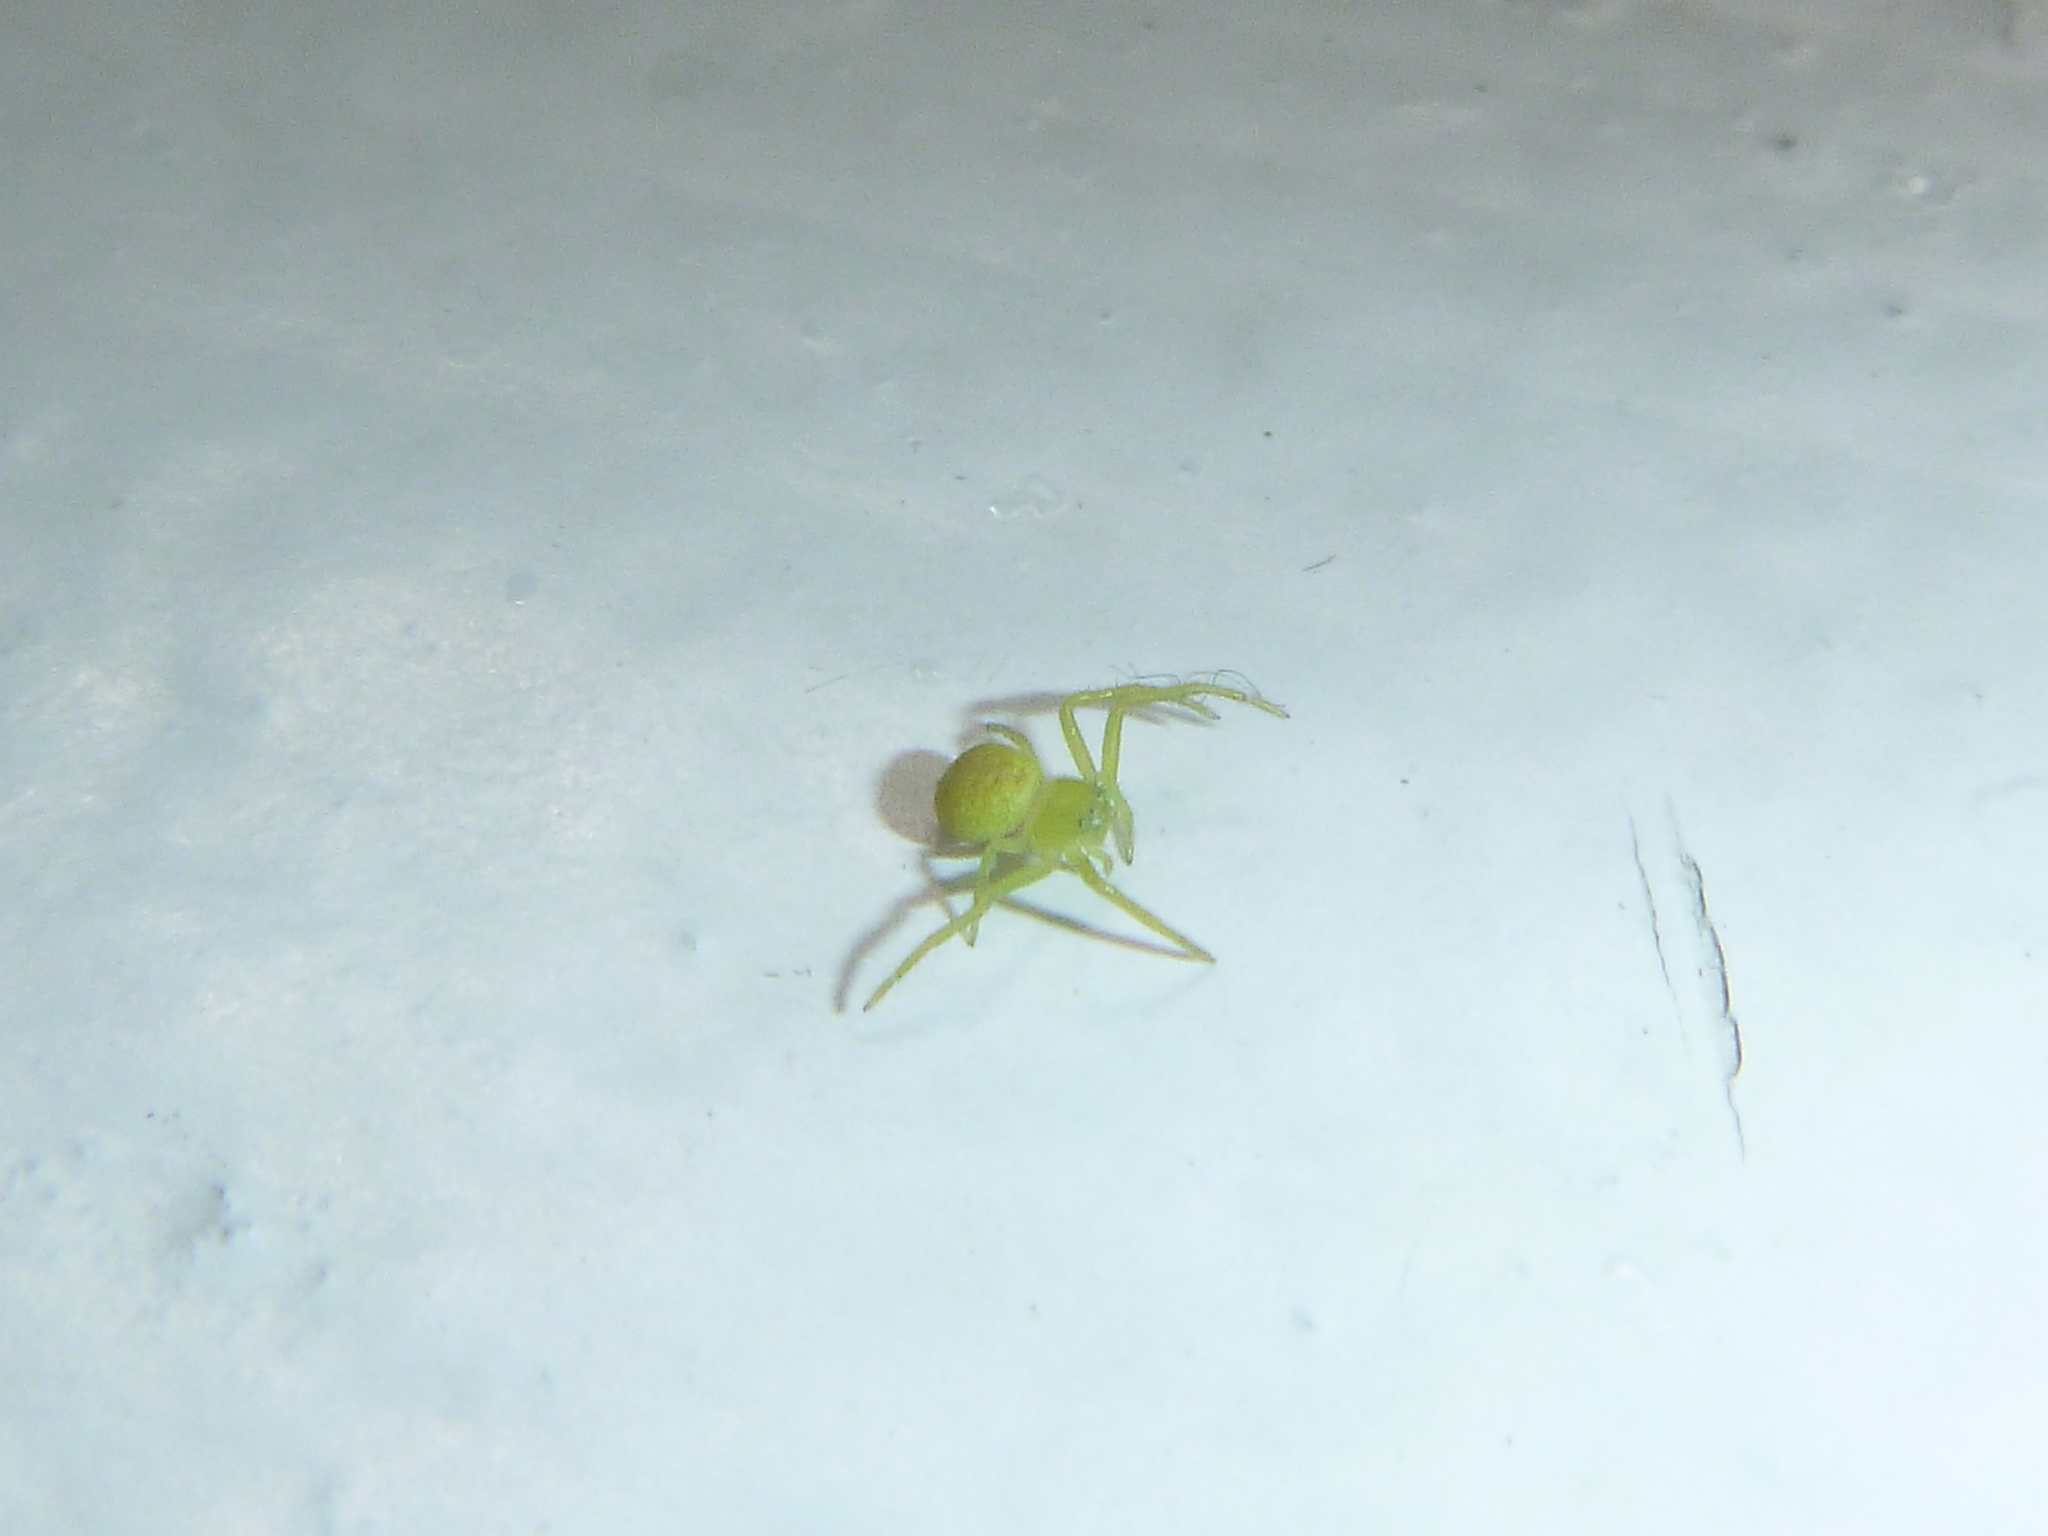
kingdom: Animalia
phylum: Arthropoda
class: Arachnida
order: Araneae
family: Thomisidae
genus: Ebrechtella
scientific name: Ebrechtella tricuspidata
